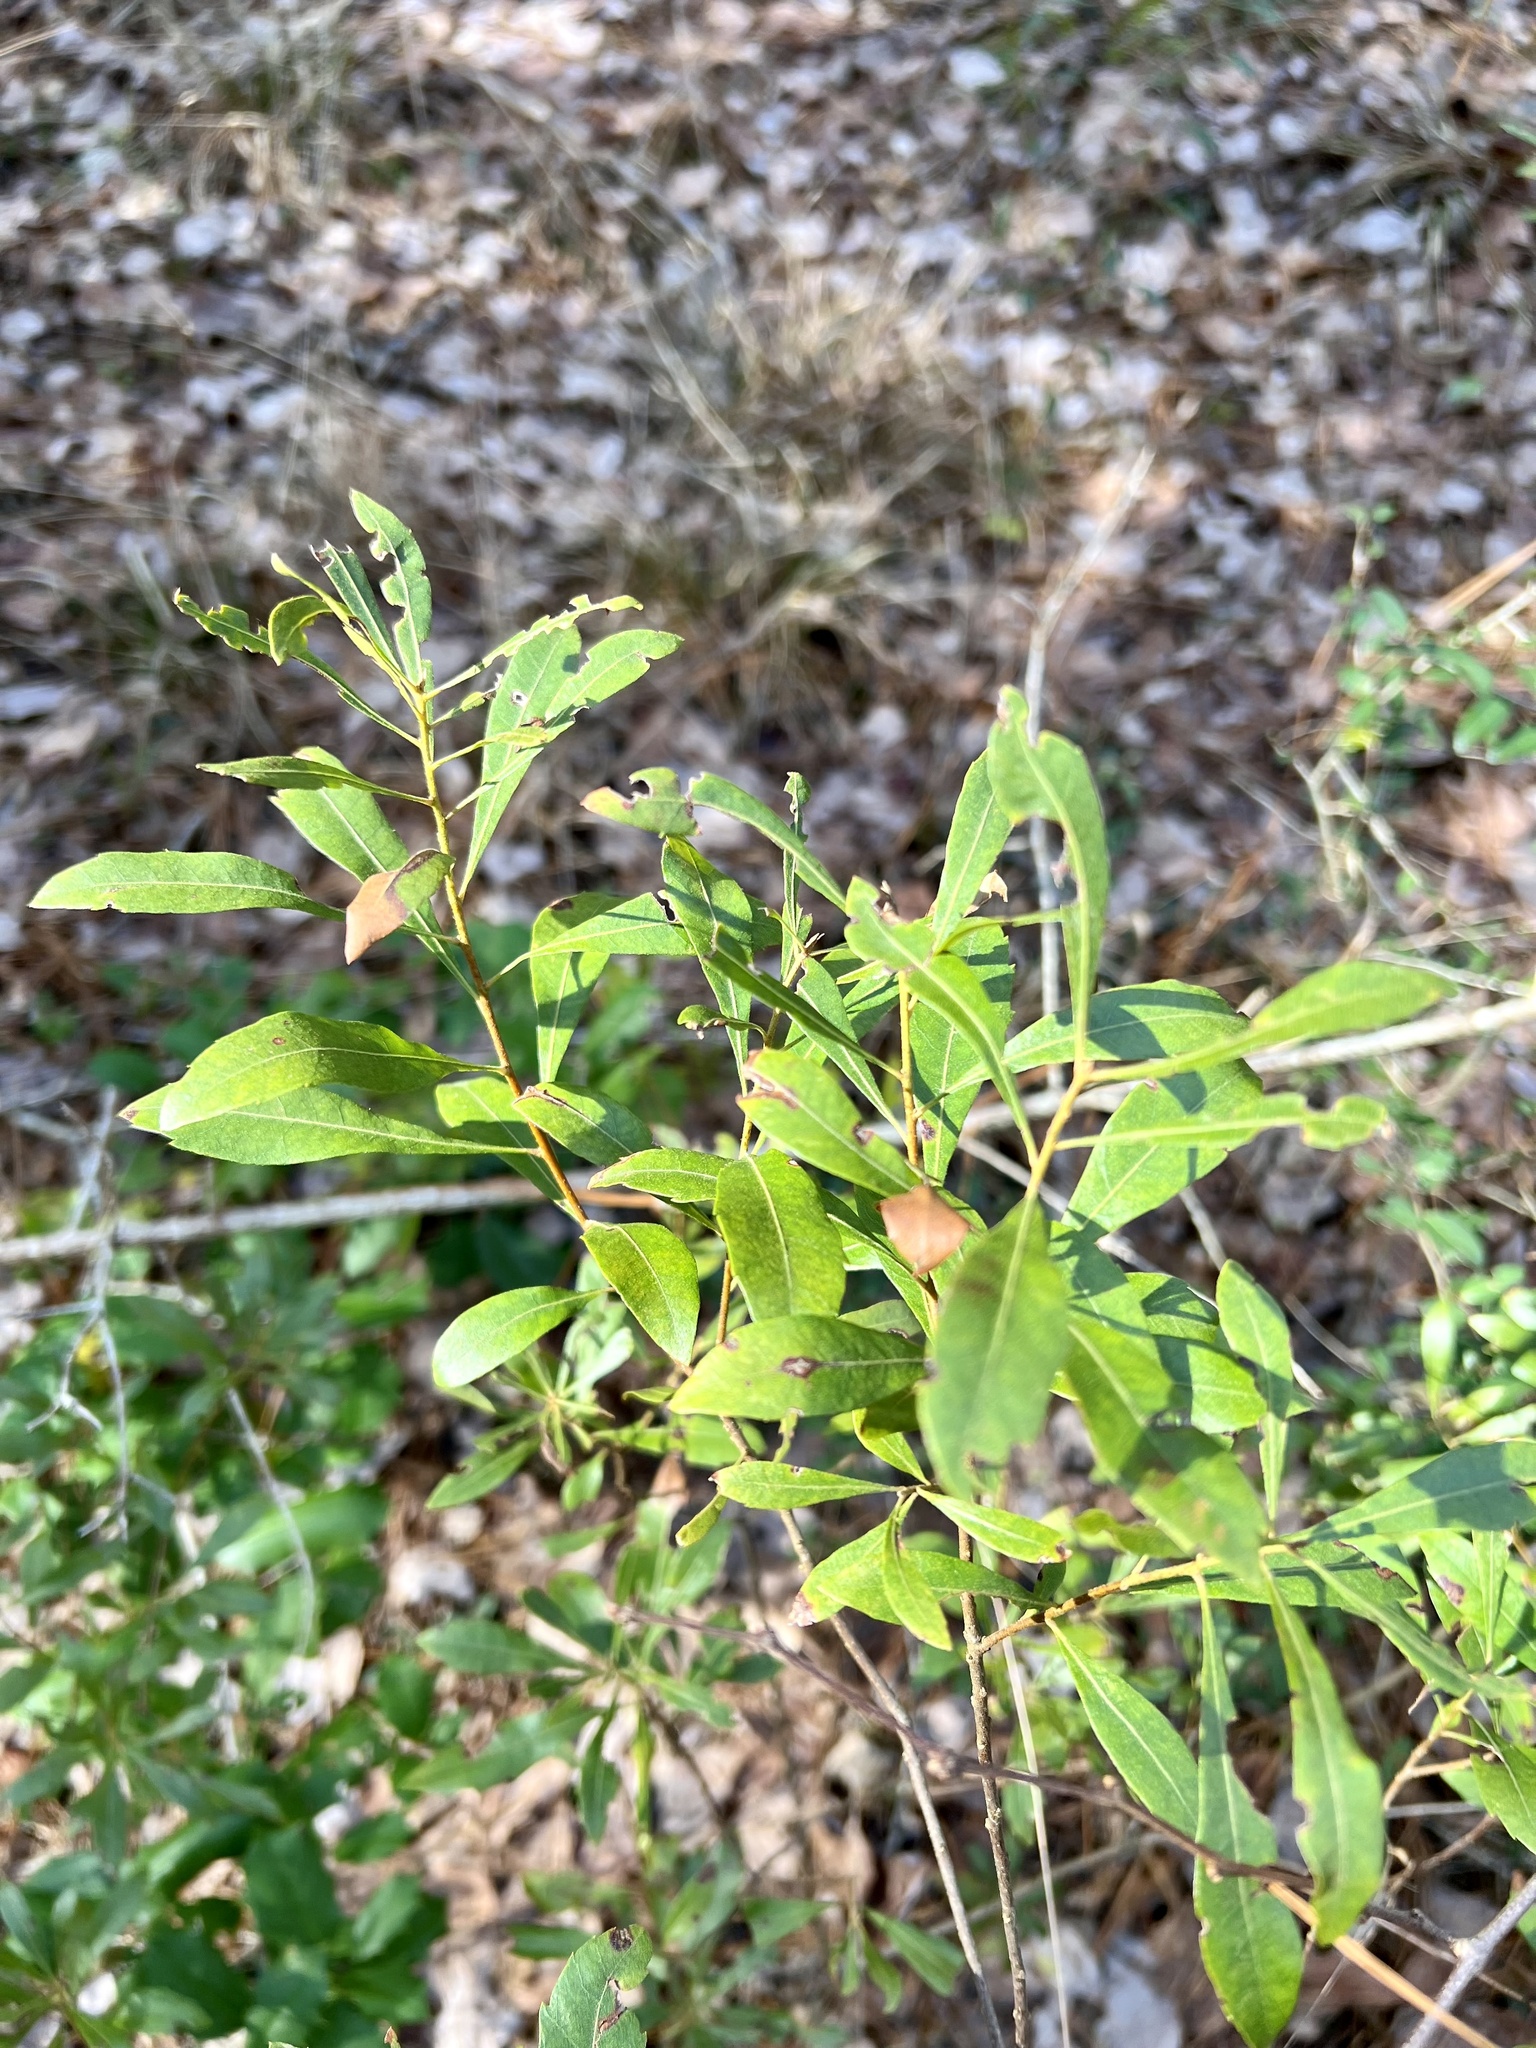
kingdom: Plantae
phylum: Tracheophyta
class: Magnoliopsida
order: Fagales
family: Myricaceae
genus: Morella
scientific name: Morella cerifera
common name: Wax myrtle
